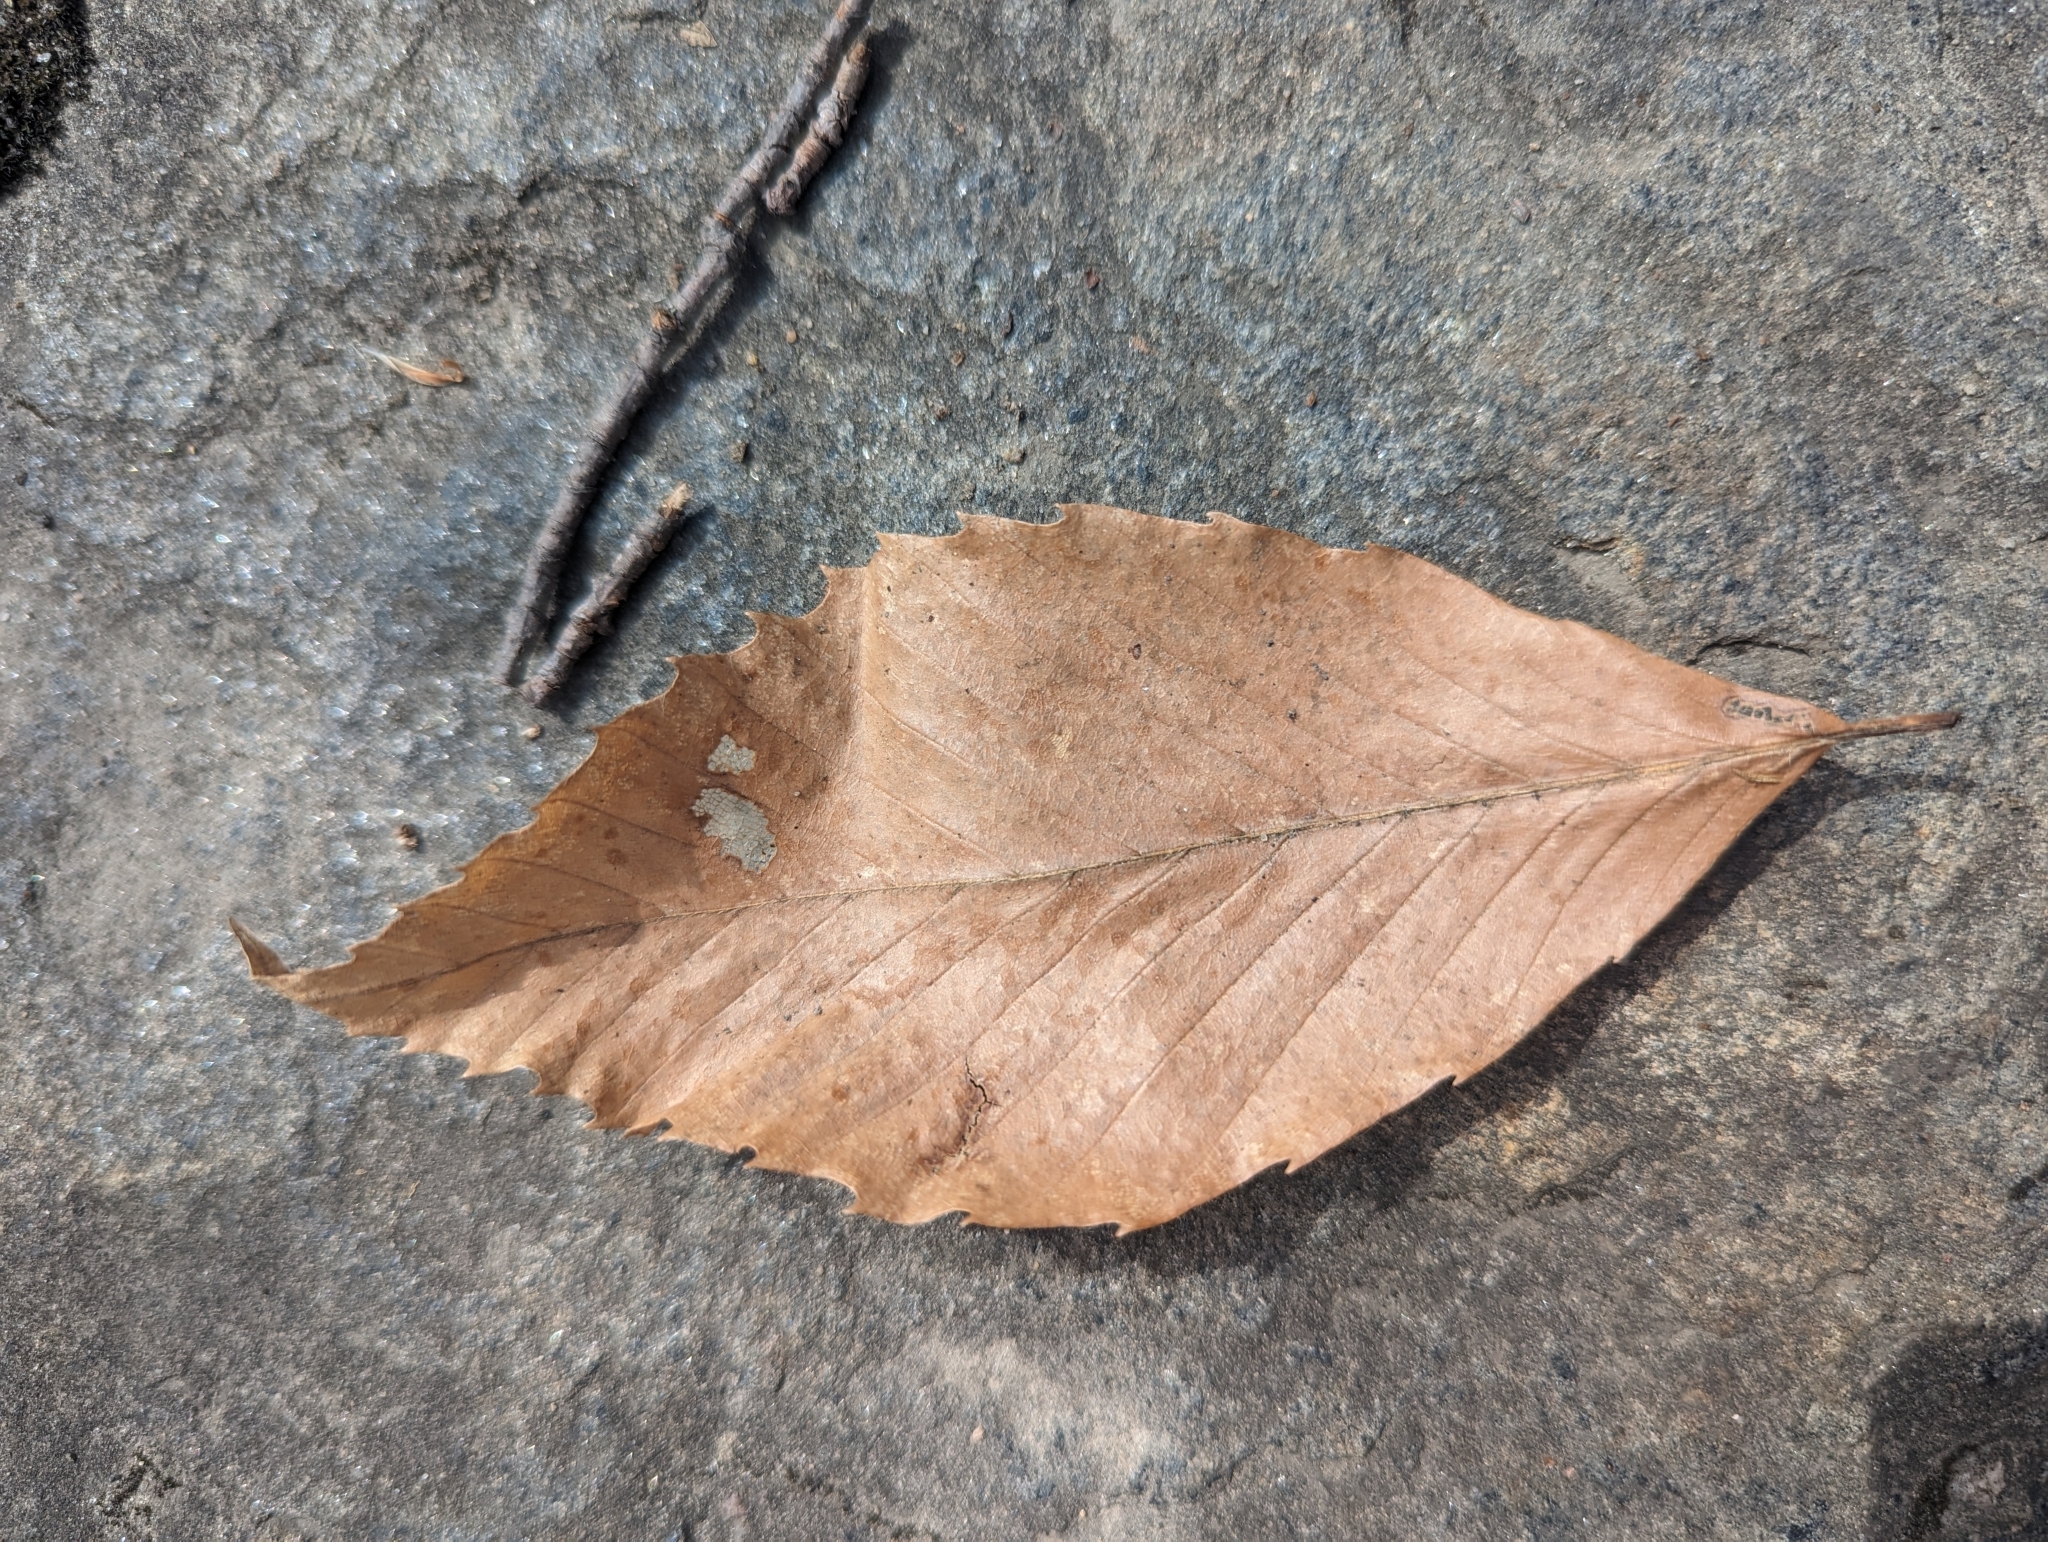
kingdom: Plantae
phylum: Tracheophyta
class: Magnoliopsida
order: Fagales
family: Fagaceae
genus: Fagus
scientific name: Fagus grandifolia
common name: American beech
